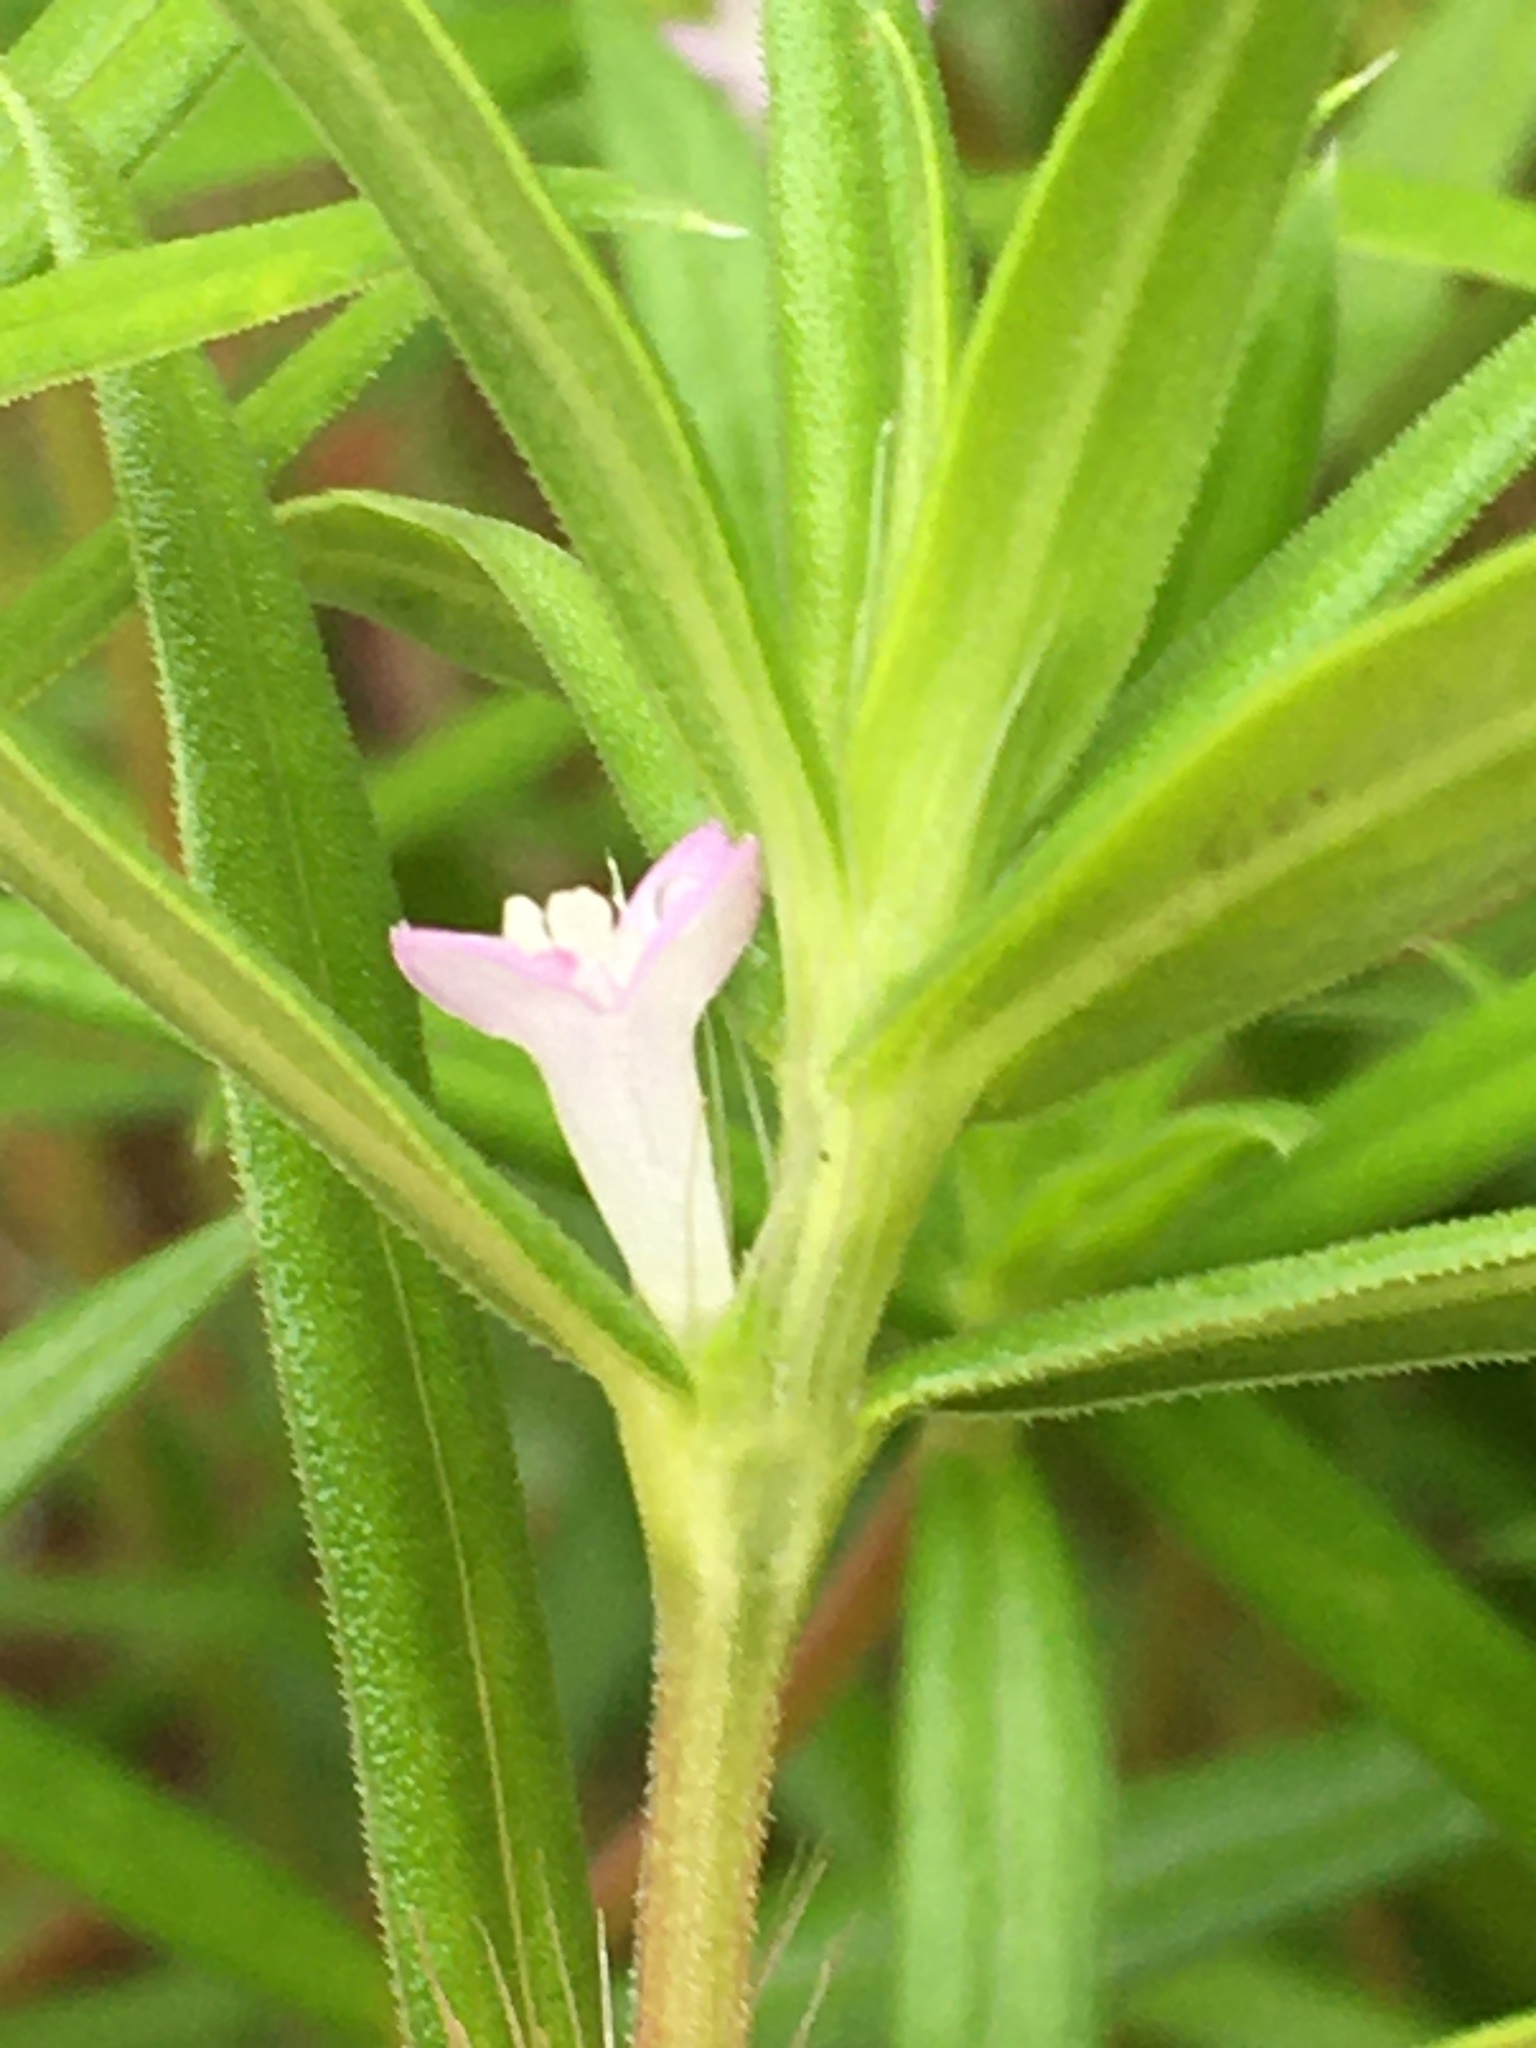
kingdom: Plantae
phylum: Tracheophyta
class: Magnoliopsida
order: Gentianales
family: Rubiaceae
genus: Hexasepalum
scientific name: Hexasepalum teres
